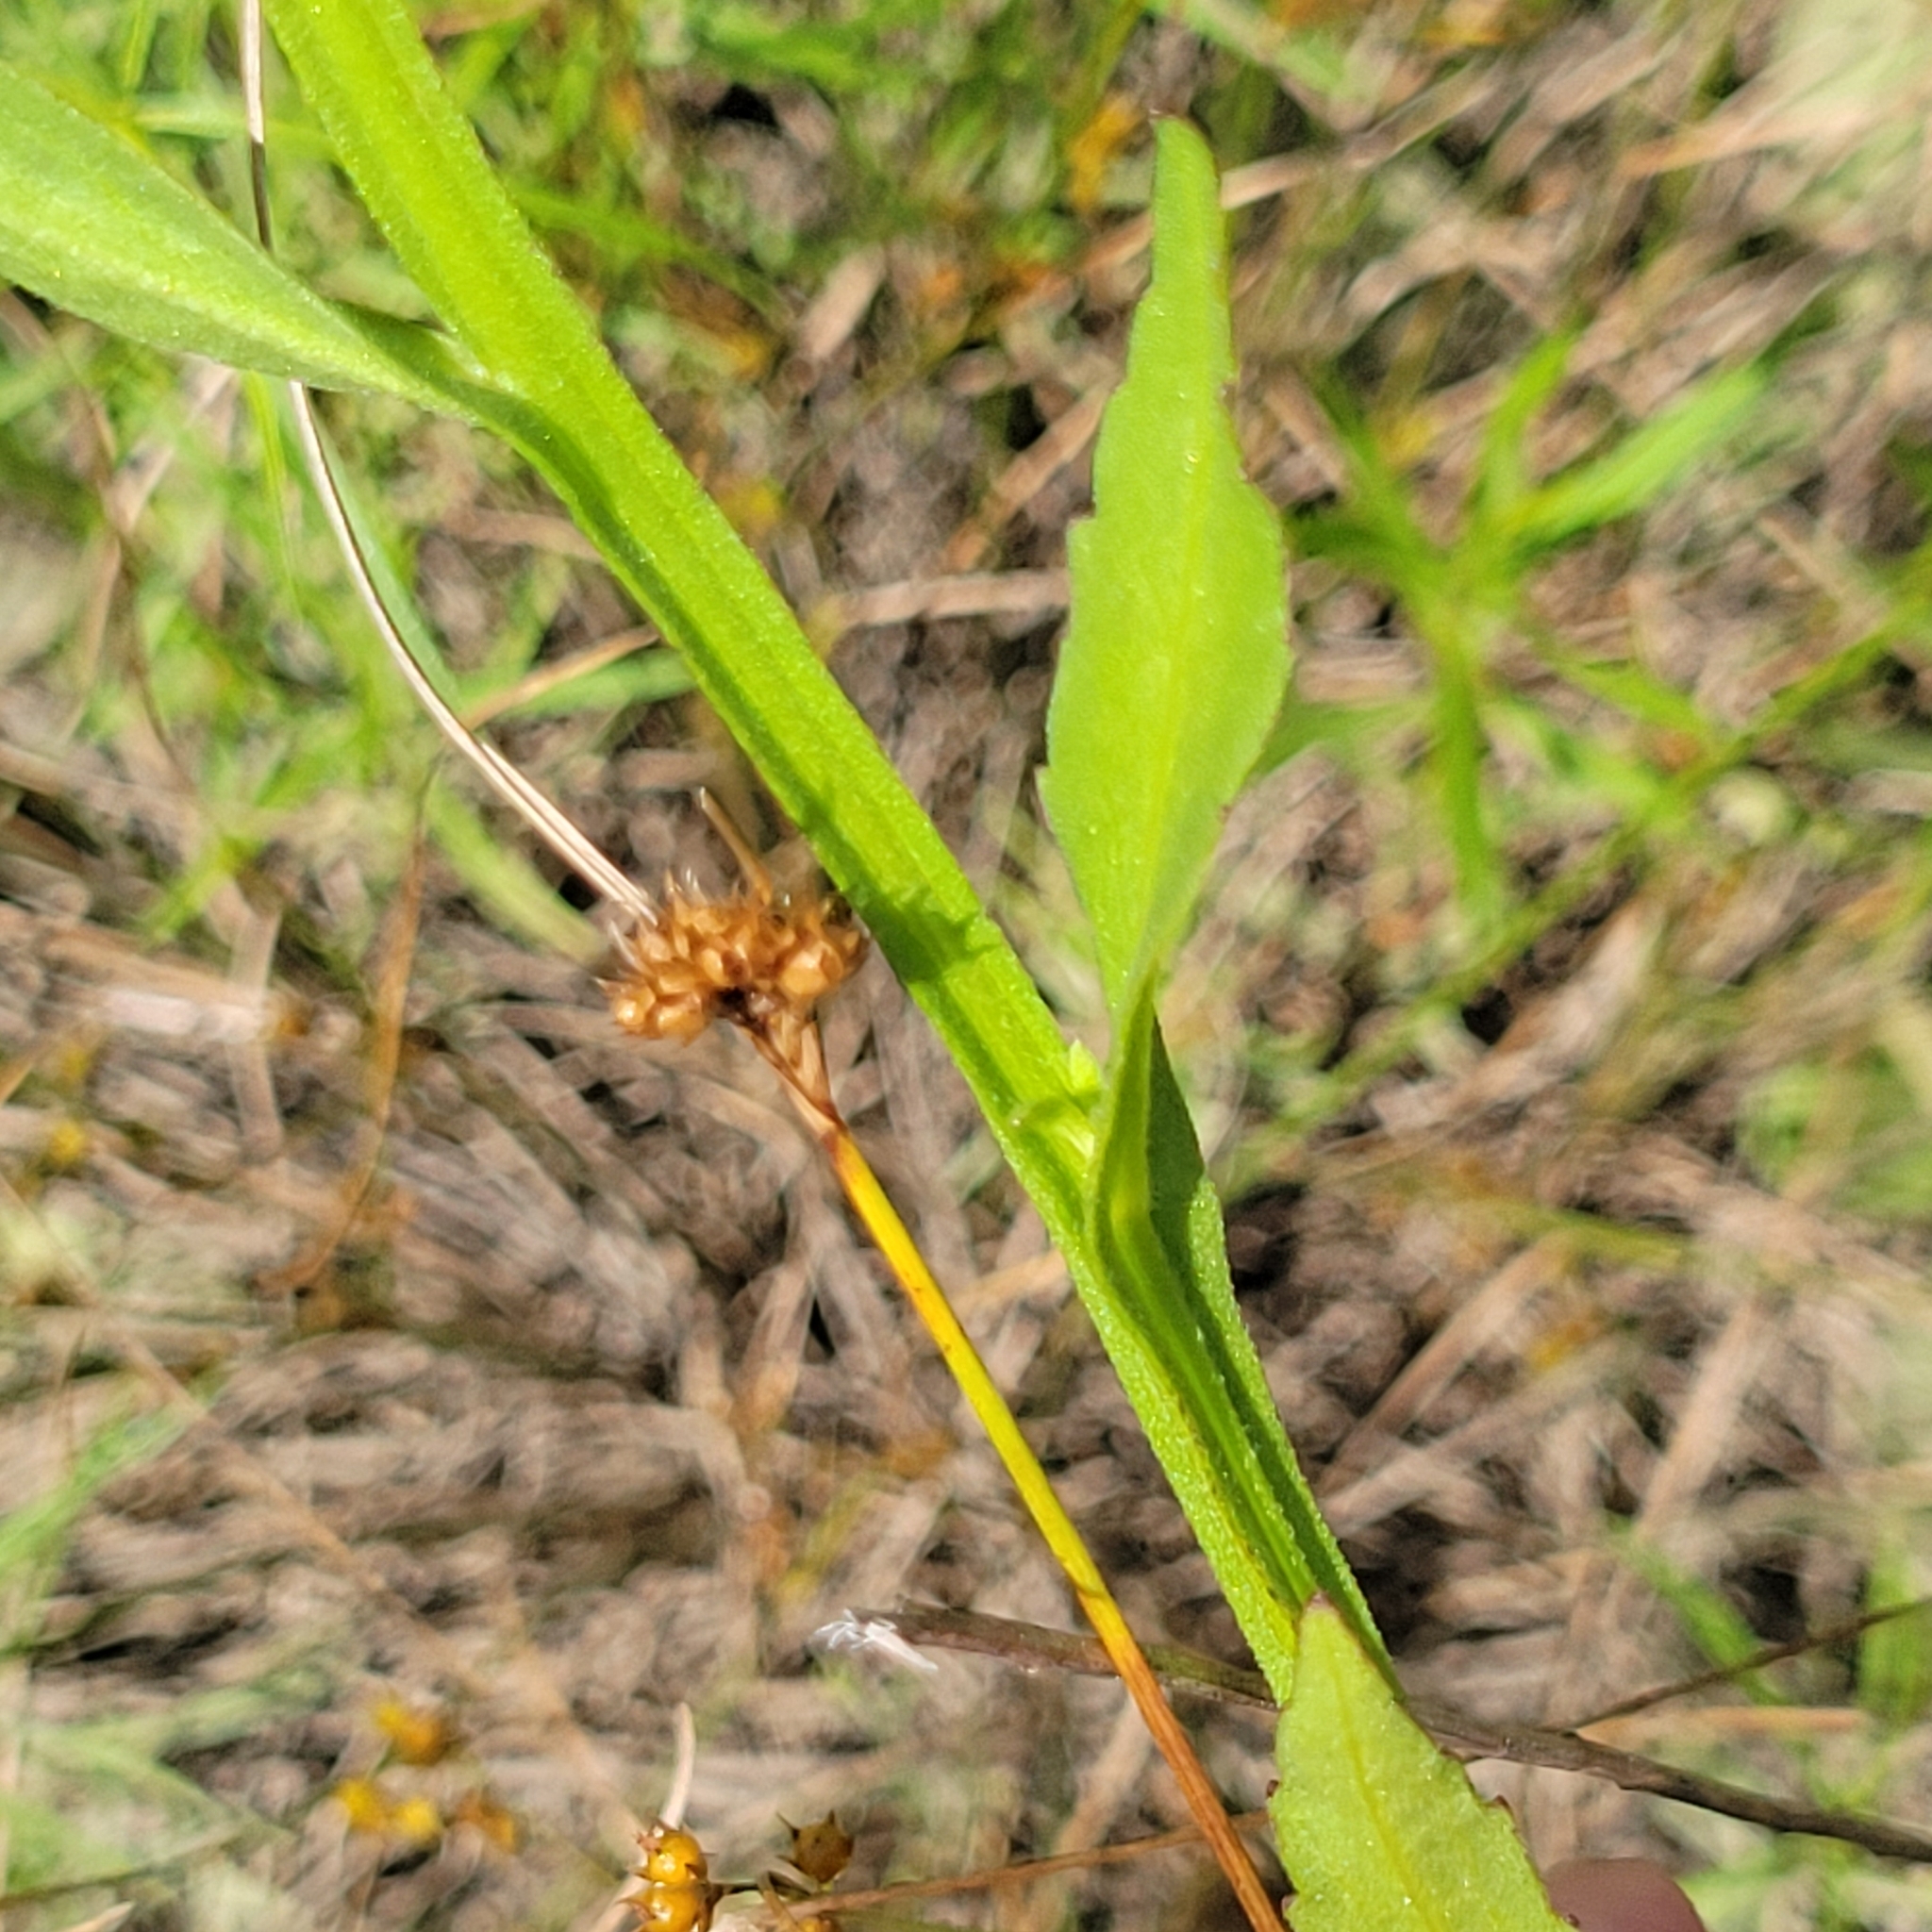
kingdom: Plantae
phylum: Tracheophyta
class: Magnoliopsida
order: Asterales
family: Asteraceae
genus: Helenium
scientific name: Helenium flexuosum
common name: Naked-flowered sneezeweed
